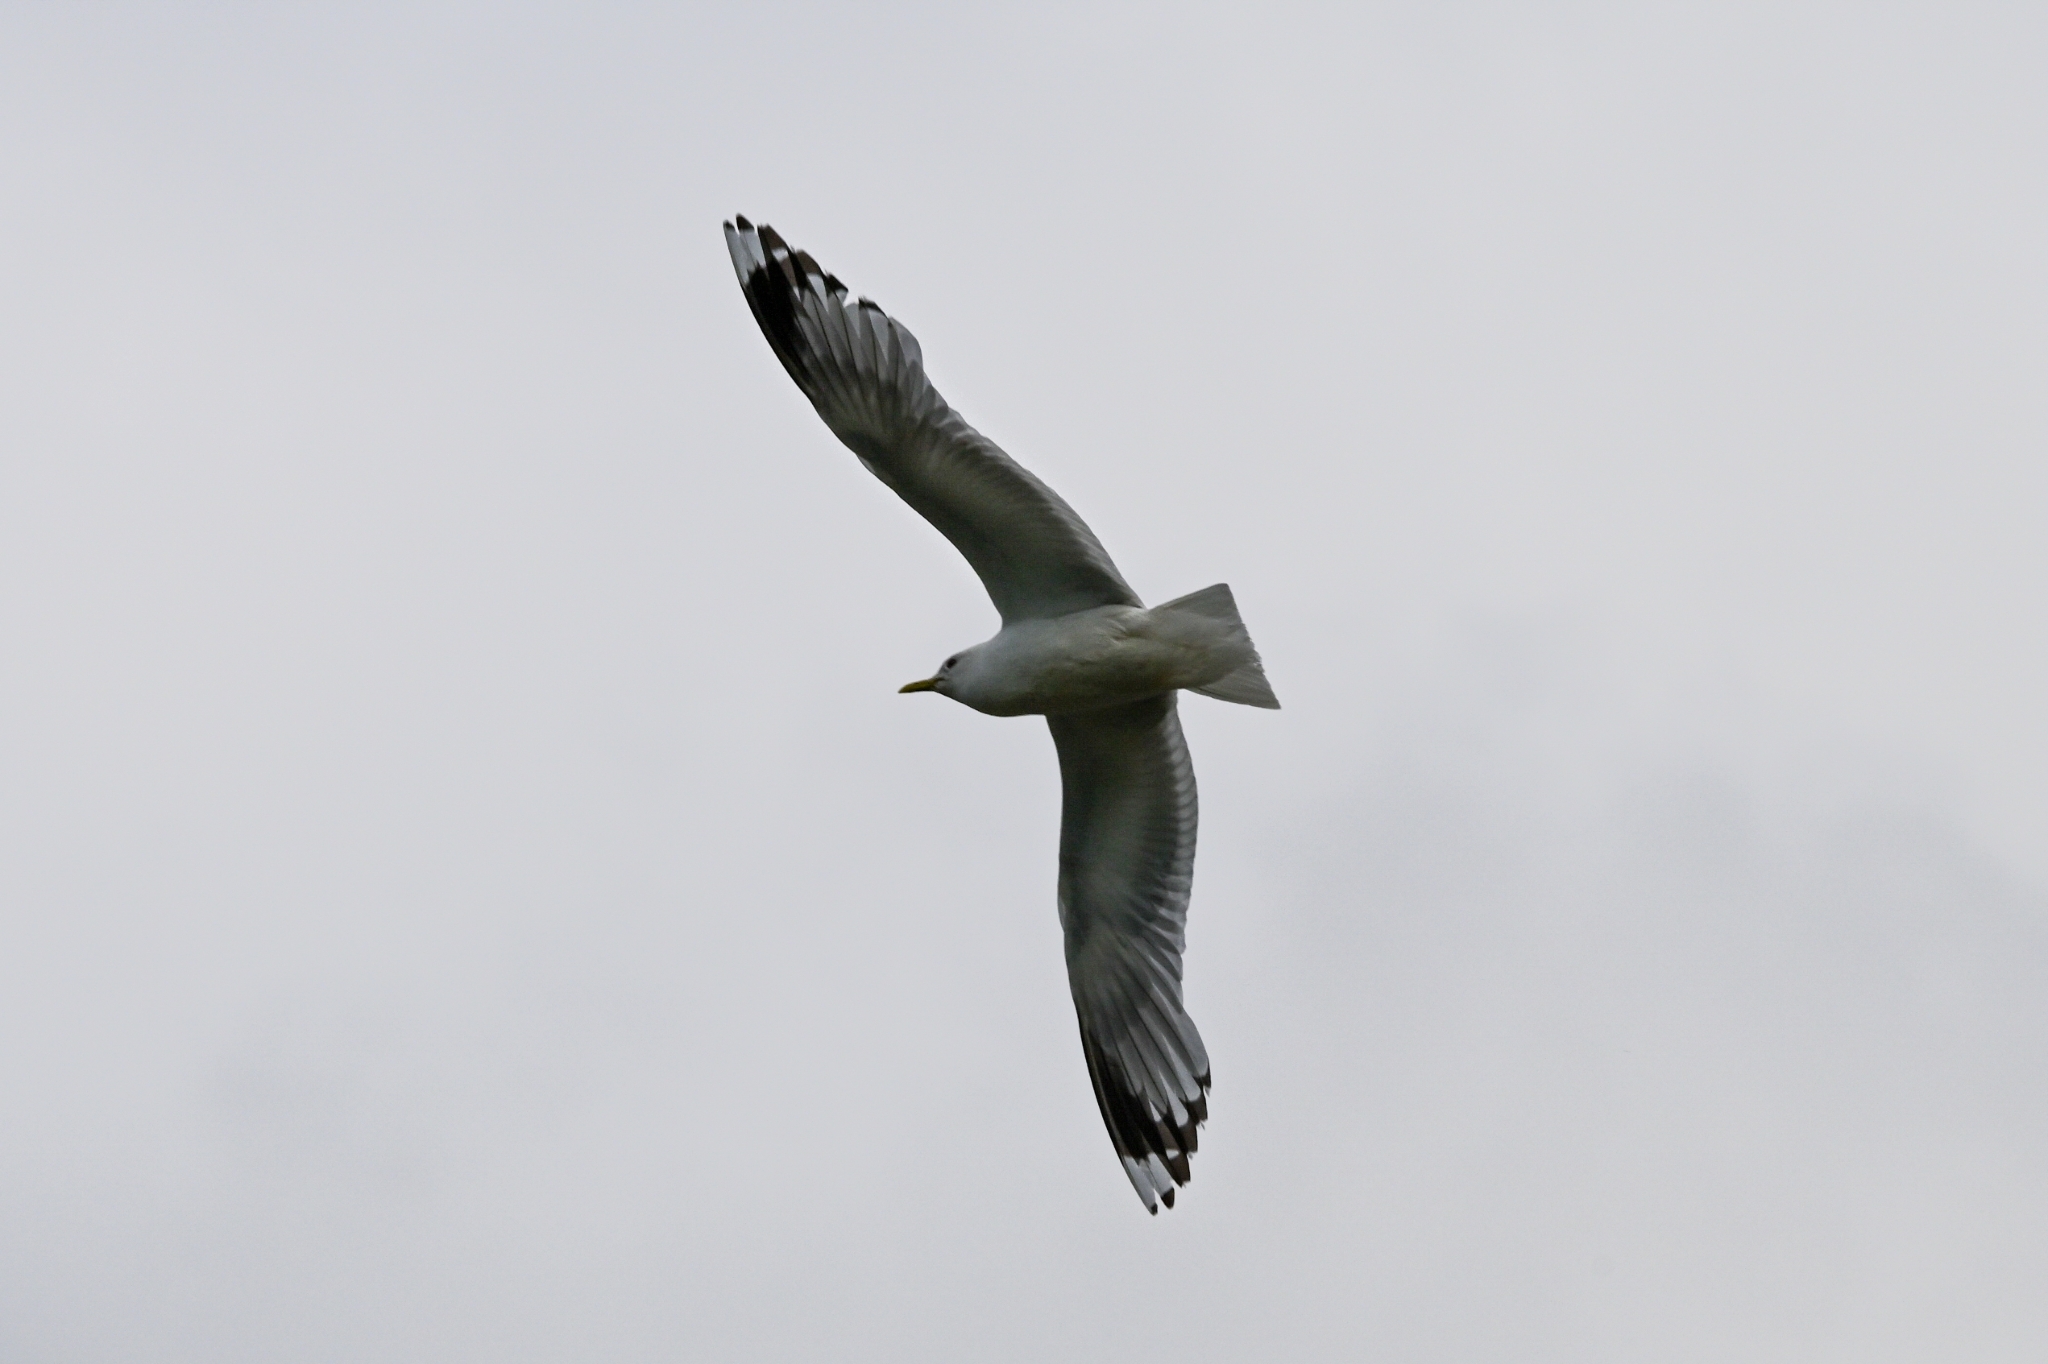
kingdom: Animalia
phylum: Chordata
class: Aves
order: Charadriiformes
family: Laridae
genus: Larus
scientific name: Larus canus
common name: Mew gull
